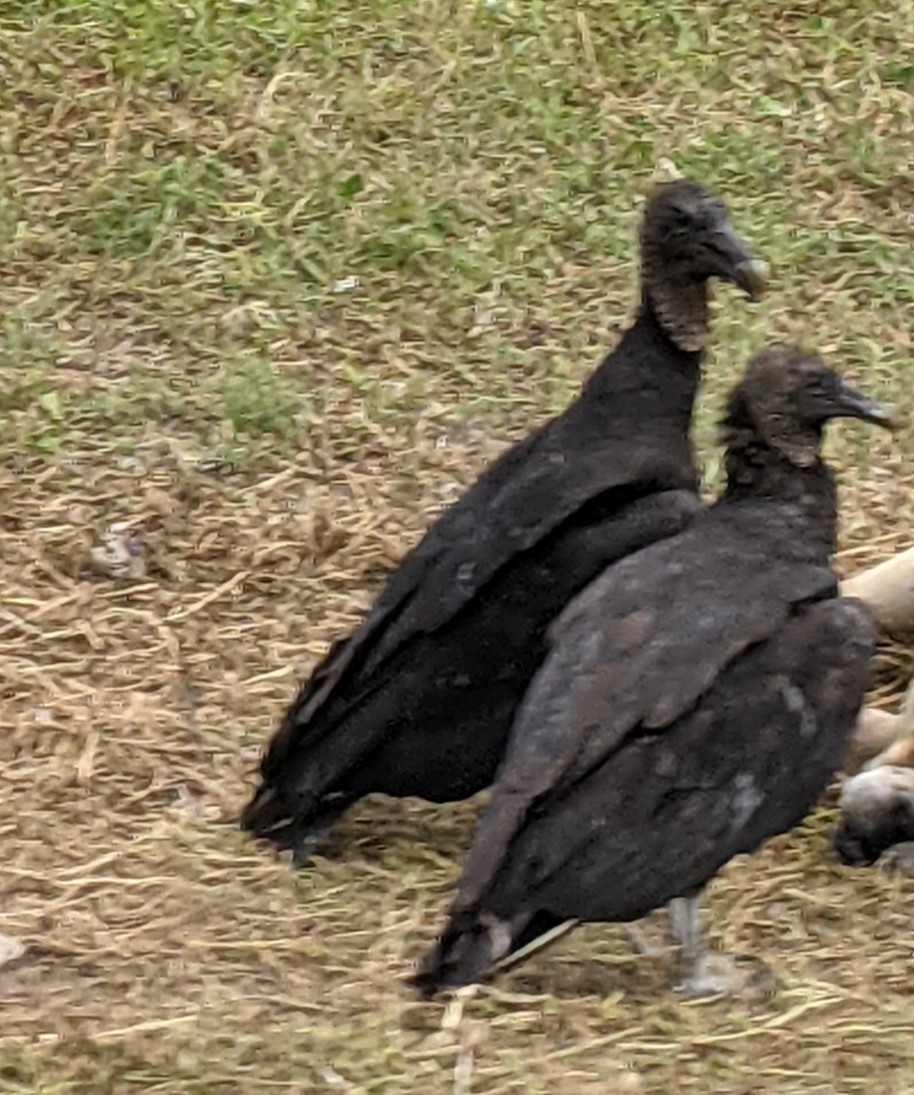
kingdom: Animalia
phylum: Chordata
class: Aves
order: Accipitriformes
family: Cathartidae
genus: Coragyps
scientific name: Coragyps atratus
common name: Black vulture
